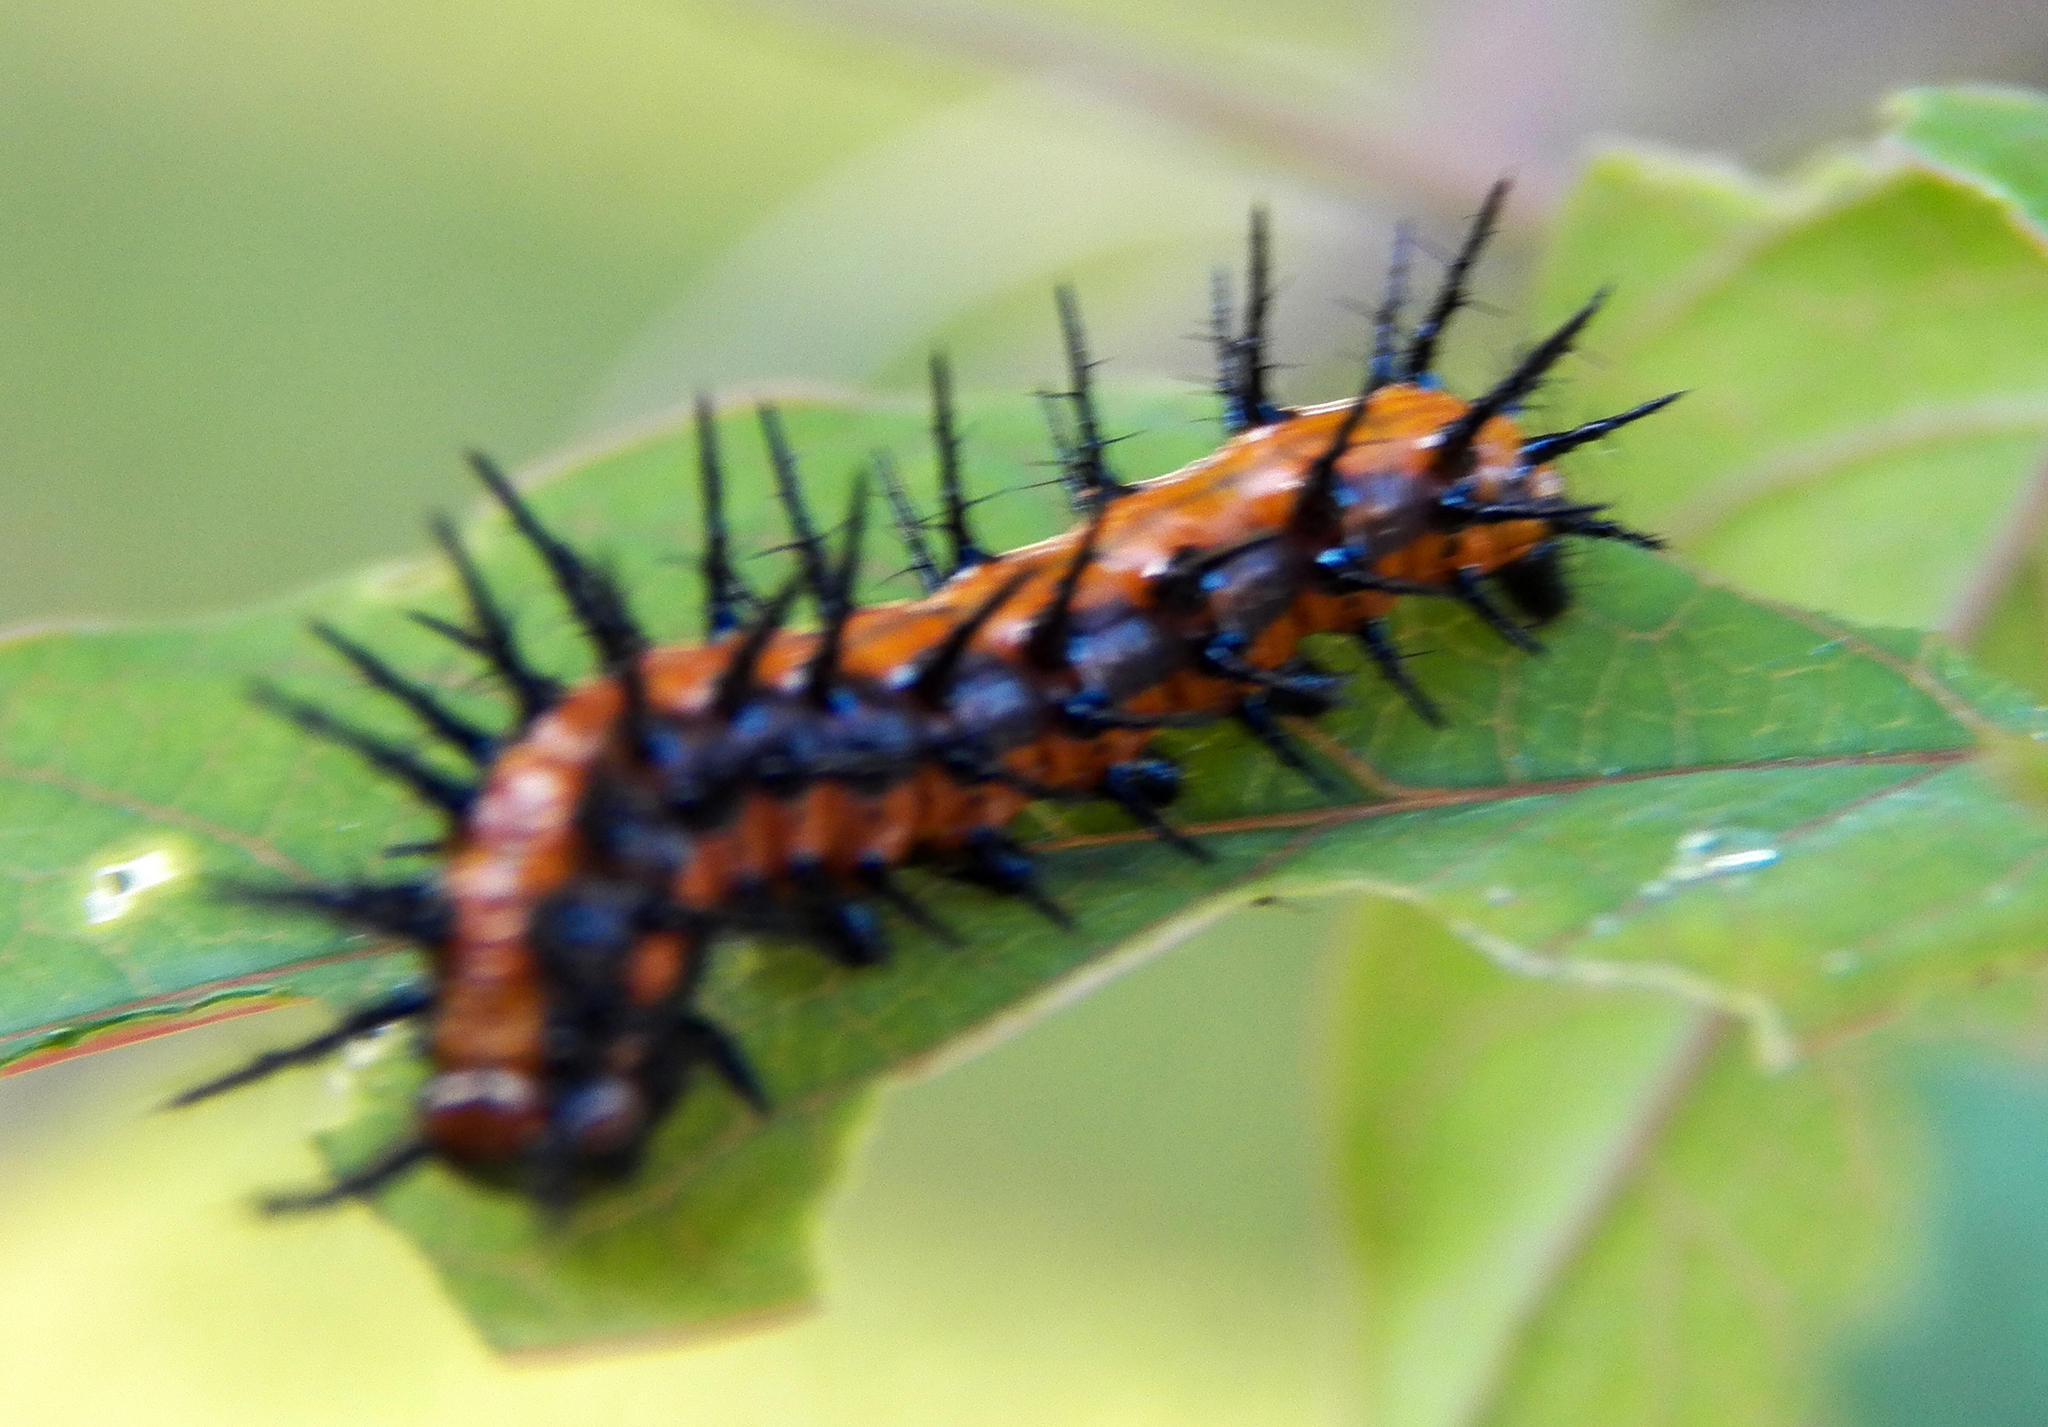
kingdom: Animalia
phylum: Arthropoda
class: Insecta
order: Lepidoptera
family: Nymphalidae
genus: Dione
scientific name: Dione vanillae
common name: Gulf fritillary
